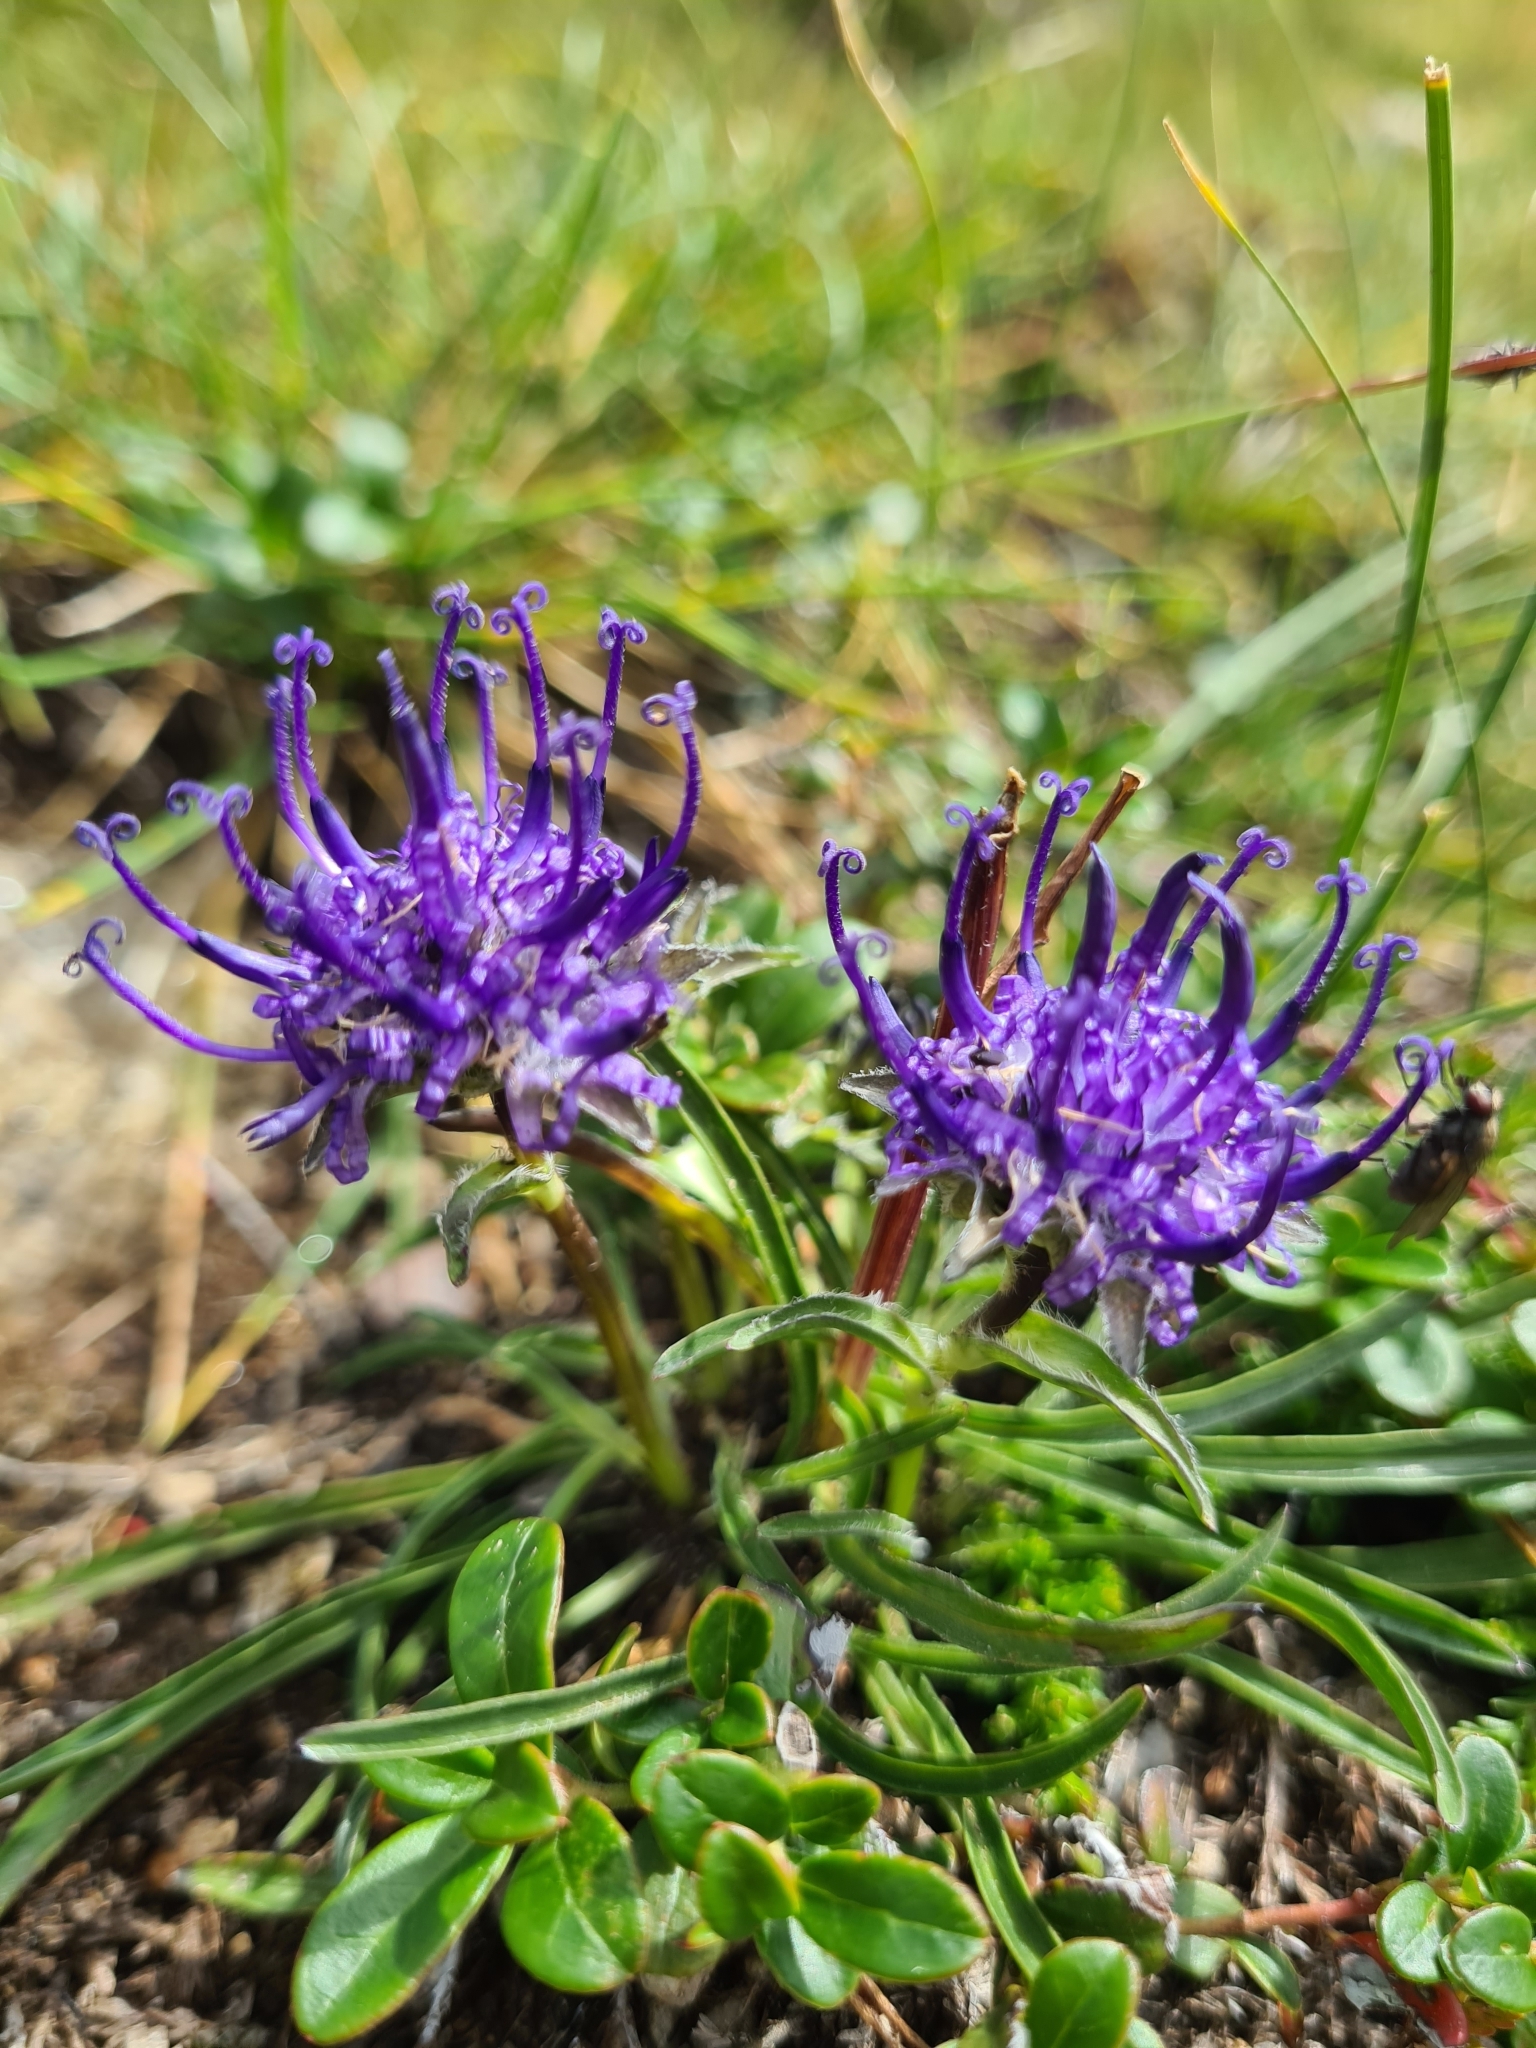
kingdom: Plantae
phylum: Tracheophyta
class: Magnoliopsida
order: Asterales
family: Campanulaceae
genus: Phyteuma
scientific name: Phyteuma confusum
